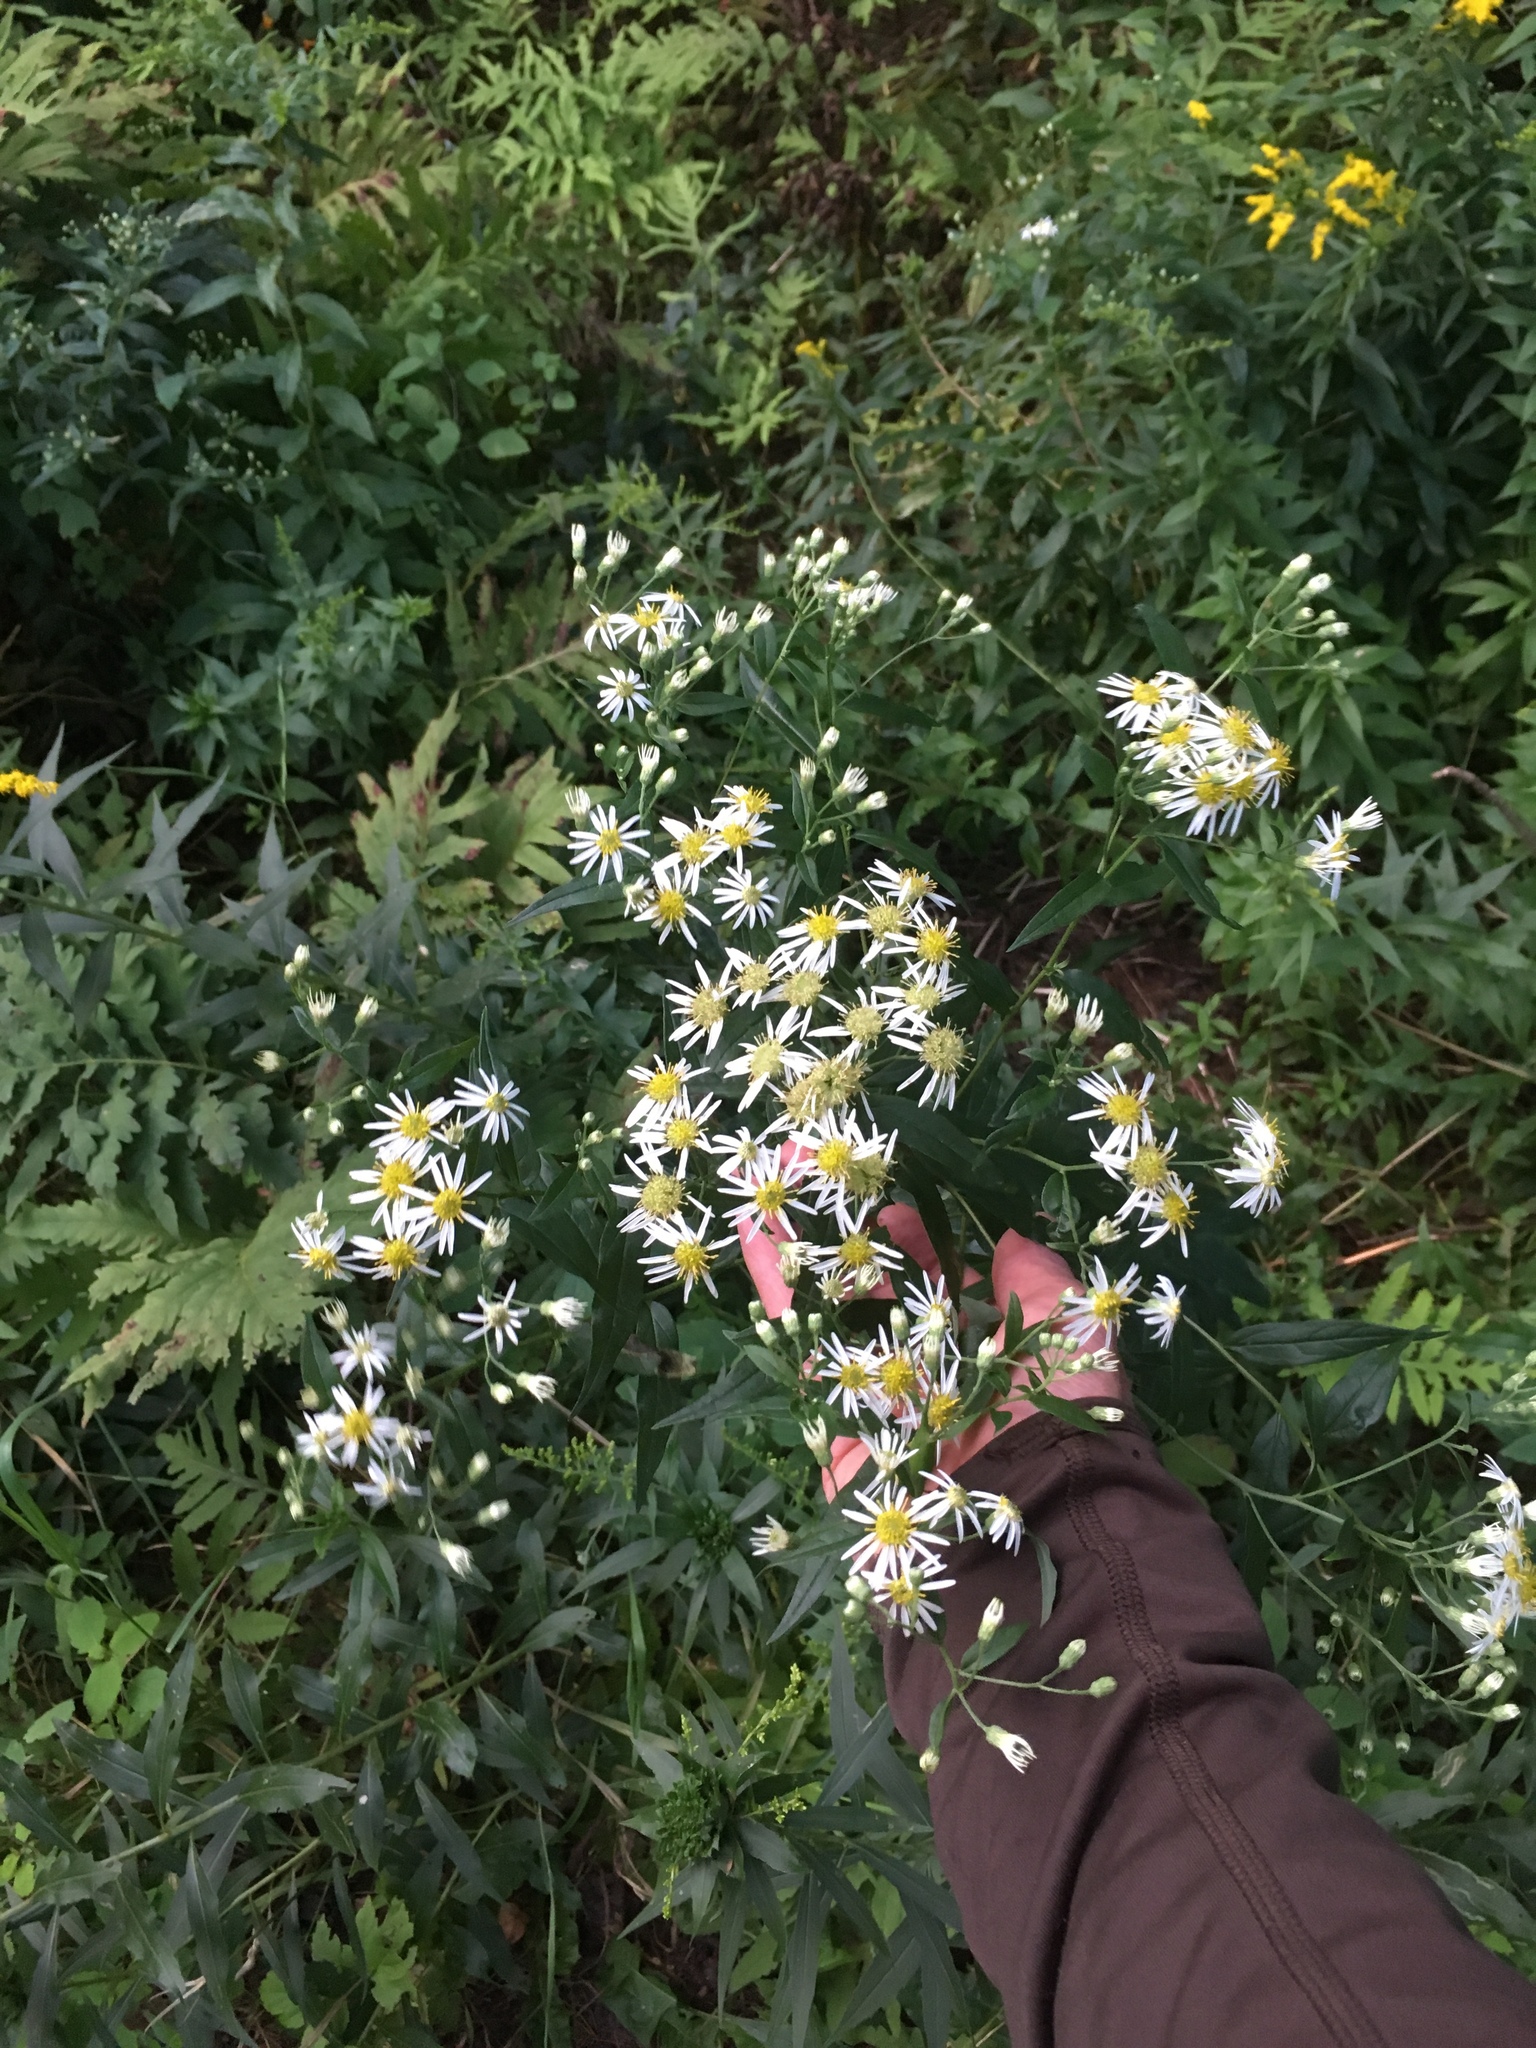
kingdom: Plantae
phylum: Tracheophyta
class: Magnoliopsida
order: Asterales
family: Asteraceae
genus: Doellingeria
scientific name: Doellingeria umbellata
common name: Flat-top white aster
